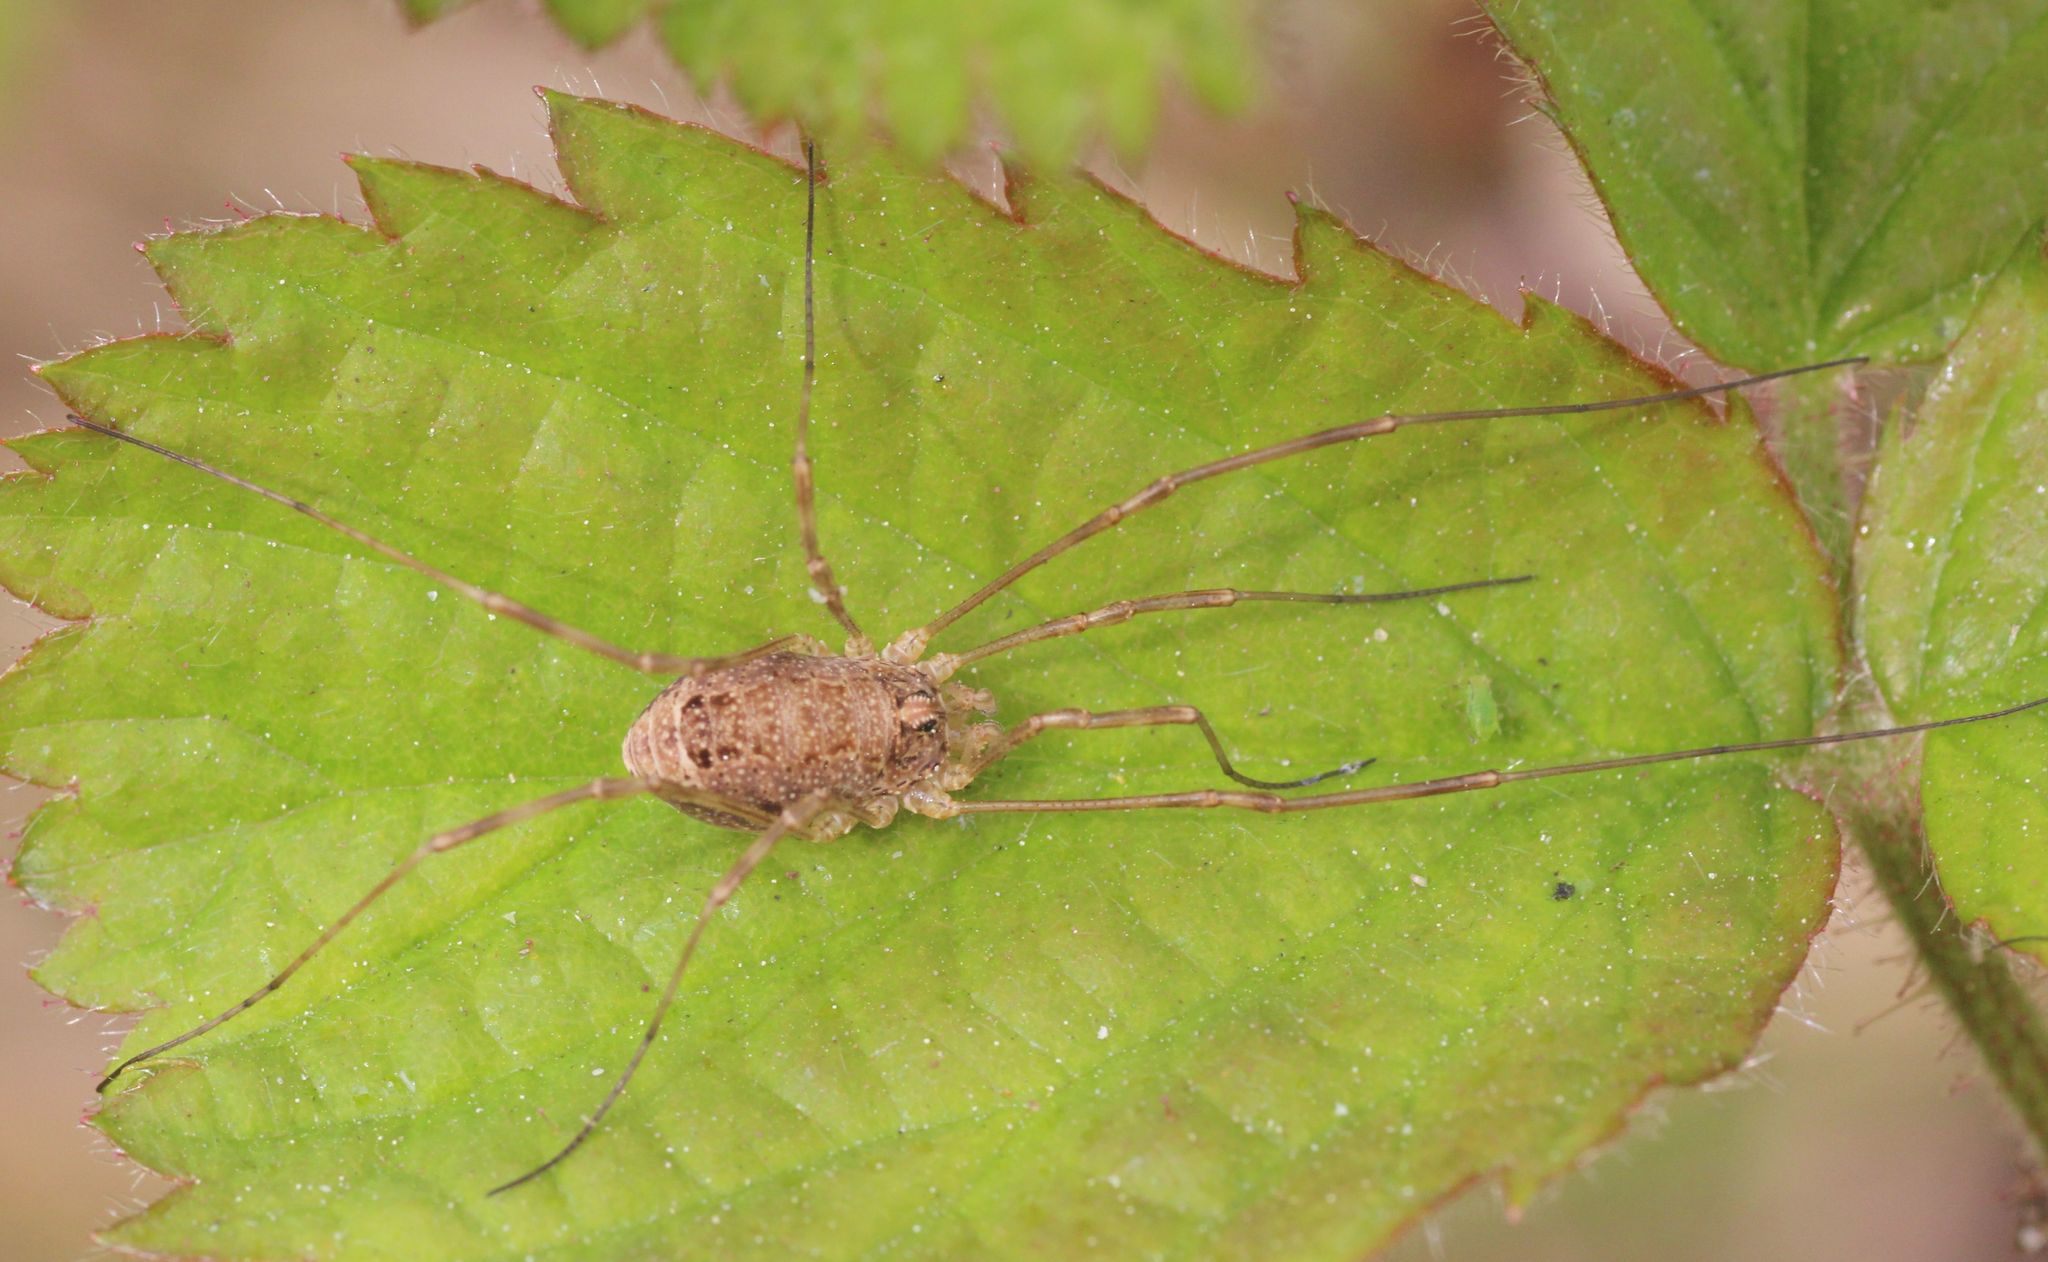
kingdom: Animalia
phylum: Arthropoda
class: Arachnida
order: Opiliones
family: Phalangiidae
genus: Rilaena
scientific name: Rilaena triangularis
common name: Spring harvestman
